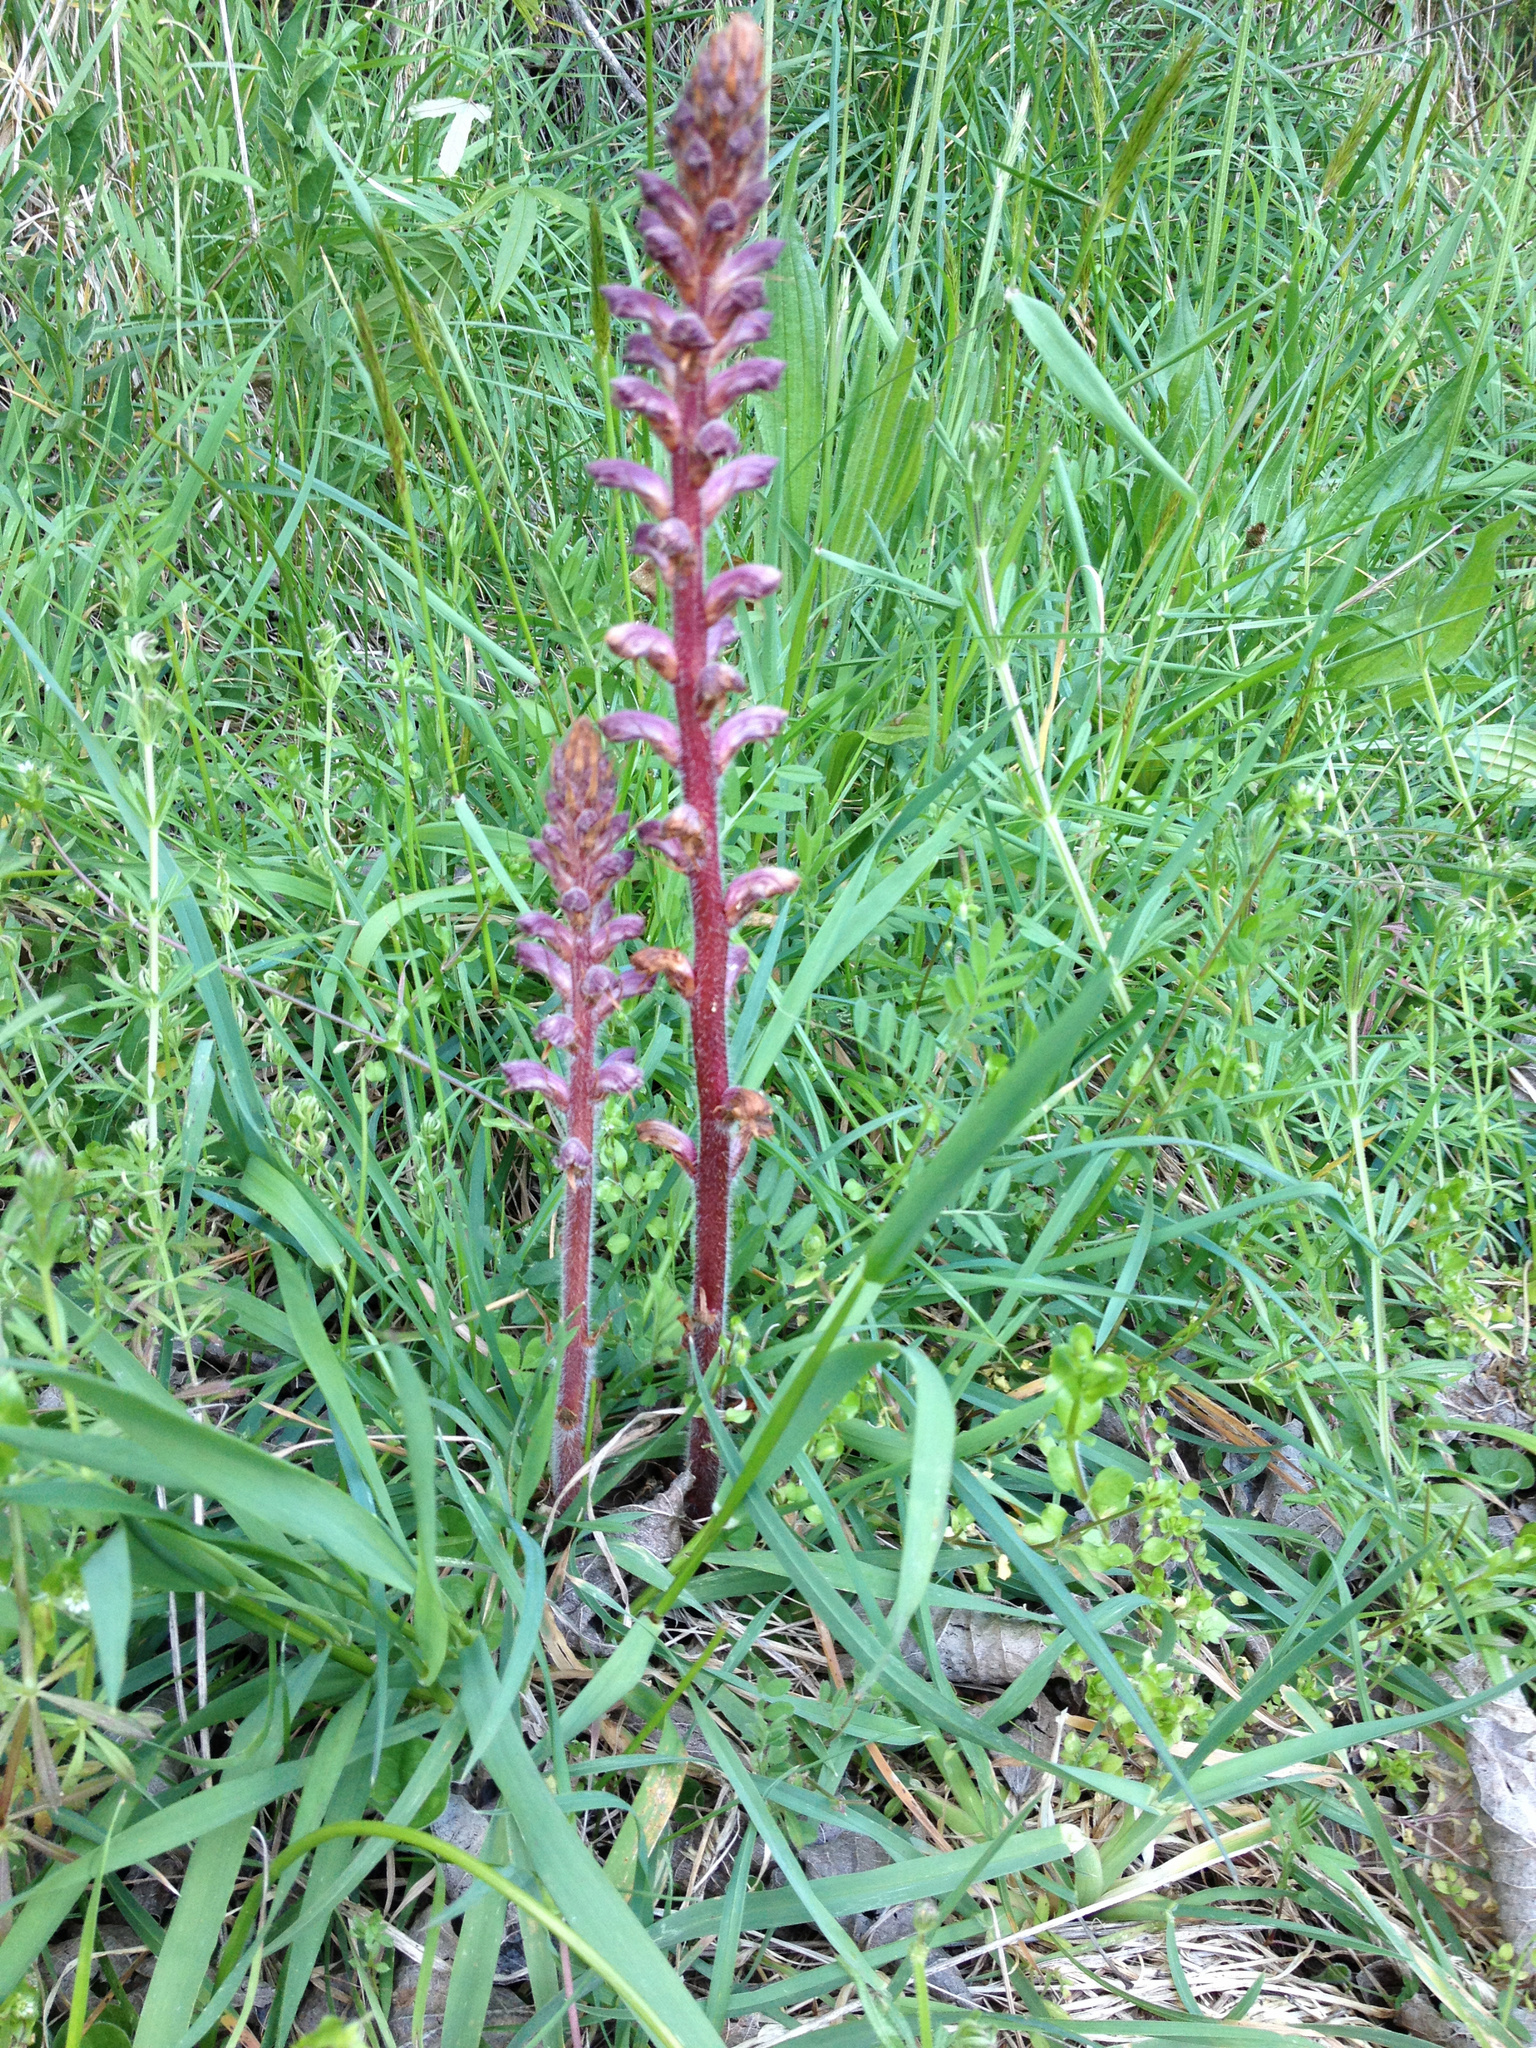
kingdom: Plantae
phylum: Tracheophyta
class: Magnoliopsida
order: Lamiales
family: Orobanchaceae
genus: Orobanche
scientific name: Orobanche minor
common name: Common broomrape
